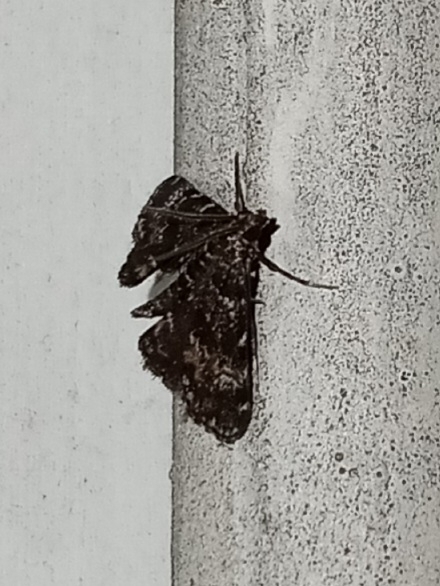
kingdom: Animalia
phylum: Arthropoda
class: Insecta
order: Lepidoptera
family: Crambidae
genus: Elophila
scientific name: Elophila obliteralis
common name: Waterlily leafcutter moth
